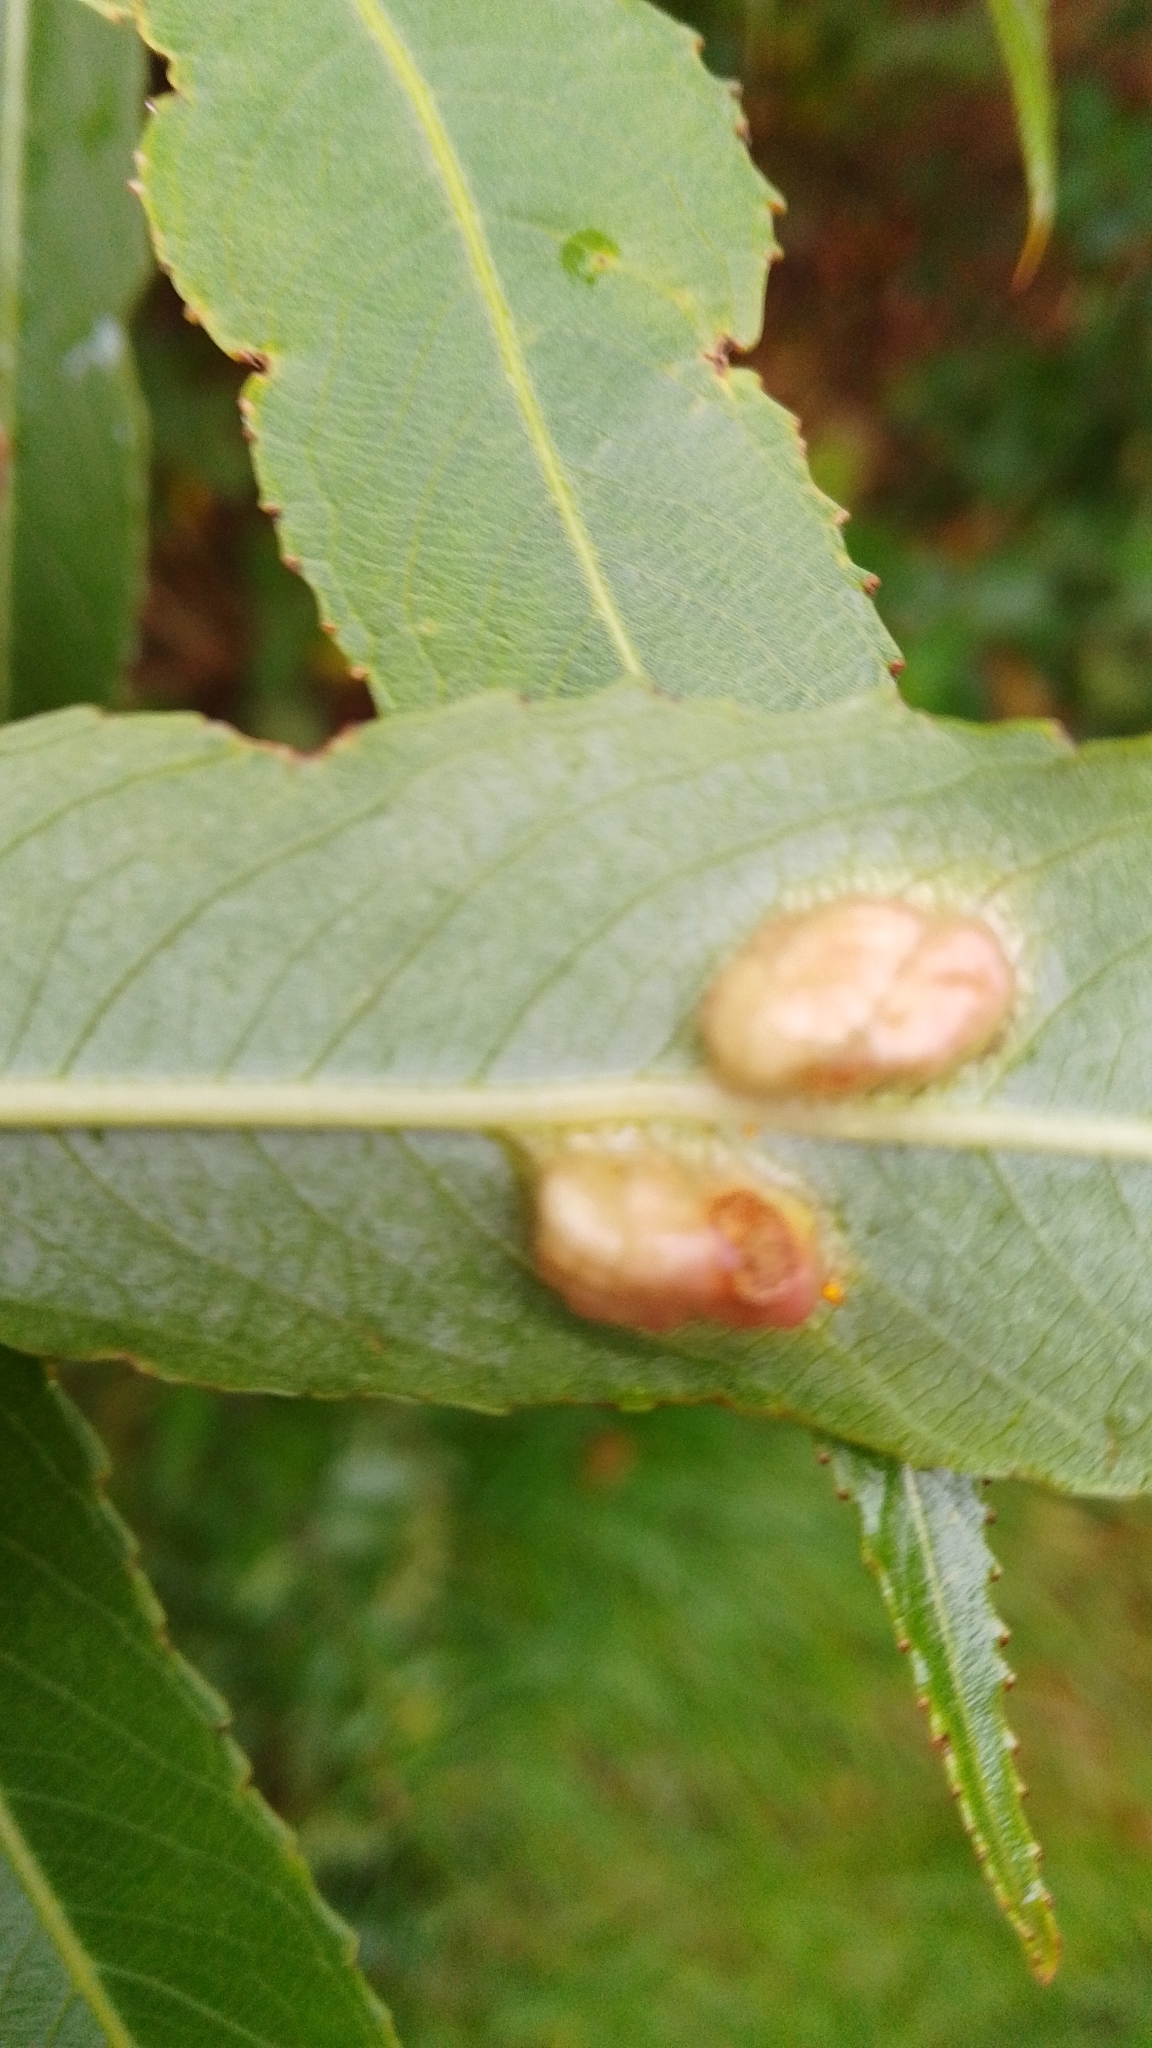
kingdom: Animalia
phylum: Arthropoda
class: Insecta
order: Hymenoptera
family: Tenthredinidae
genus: Pontania
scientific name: Pontania proxima
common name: Common sawfly
